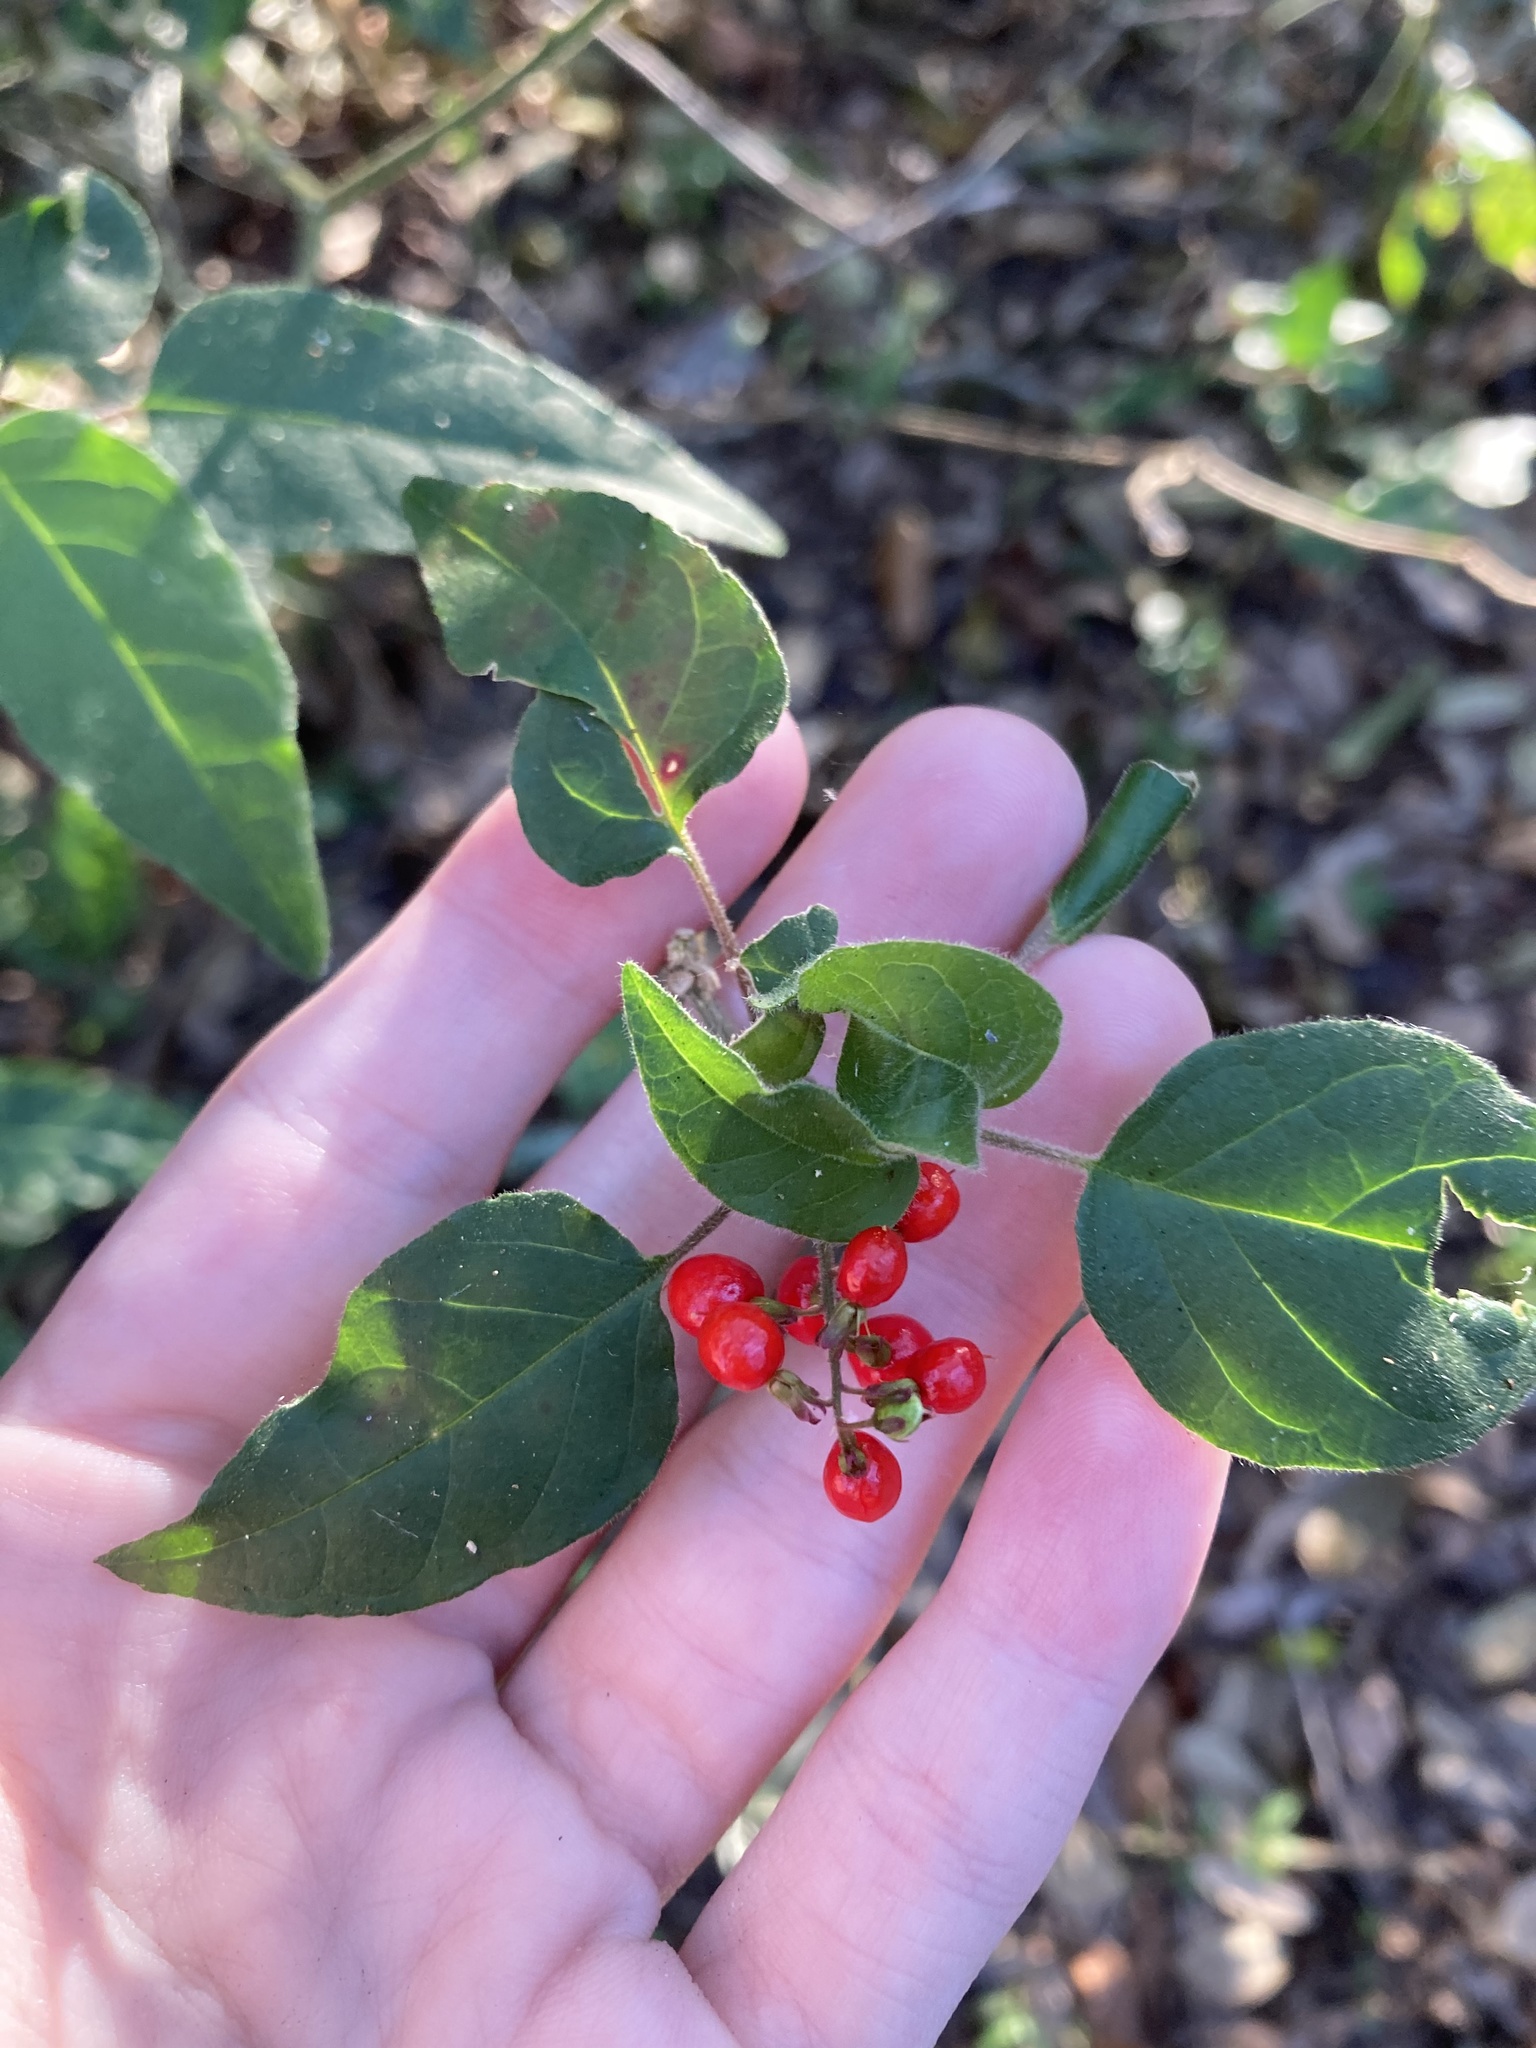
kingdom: Plantae
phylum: Tracheophyta
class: Magnoliopsida
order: Caryophyllales
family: Phytolaccaceae
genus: Rivina
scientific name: Rivina humilis
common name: Rougeplant
